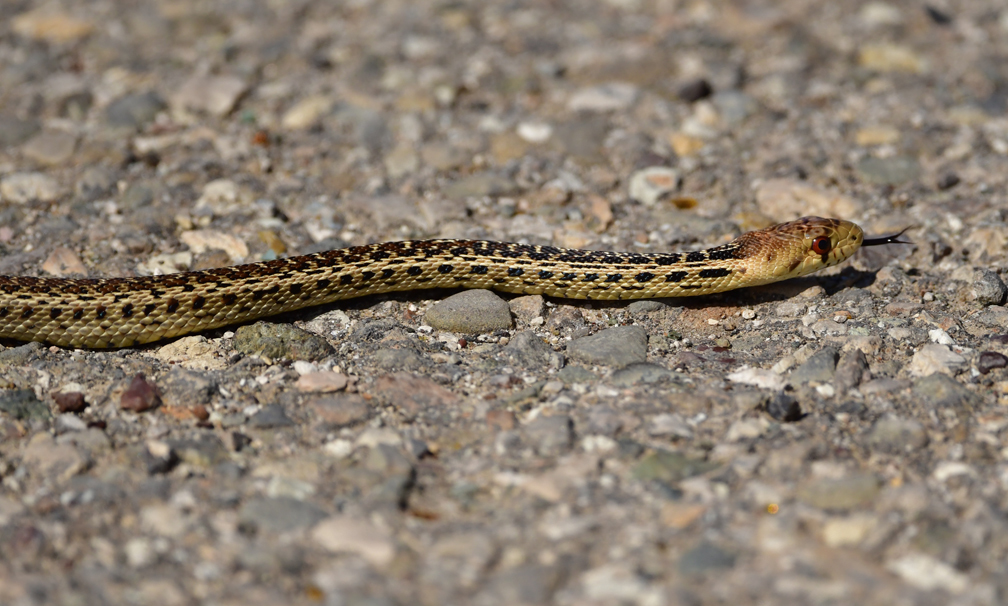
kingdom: Animalia
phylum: Chordata
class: Squamata
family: Colubridae
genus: Pituophis
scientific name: Pituophis catenifer
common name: Gopher snake
